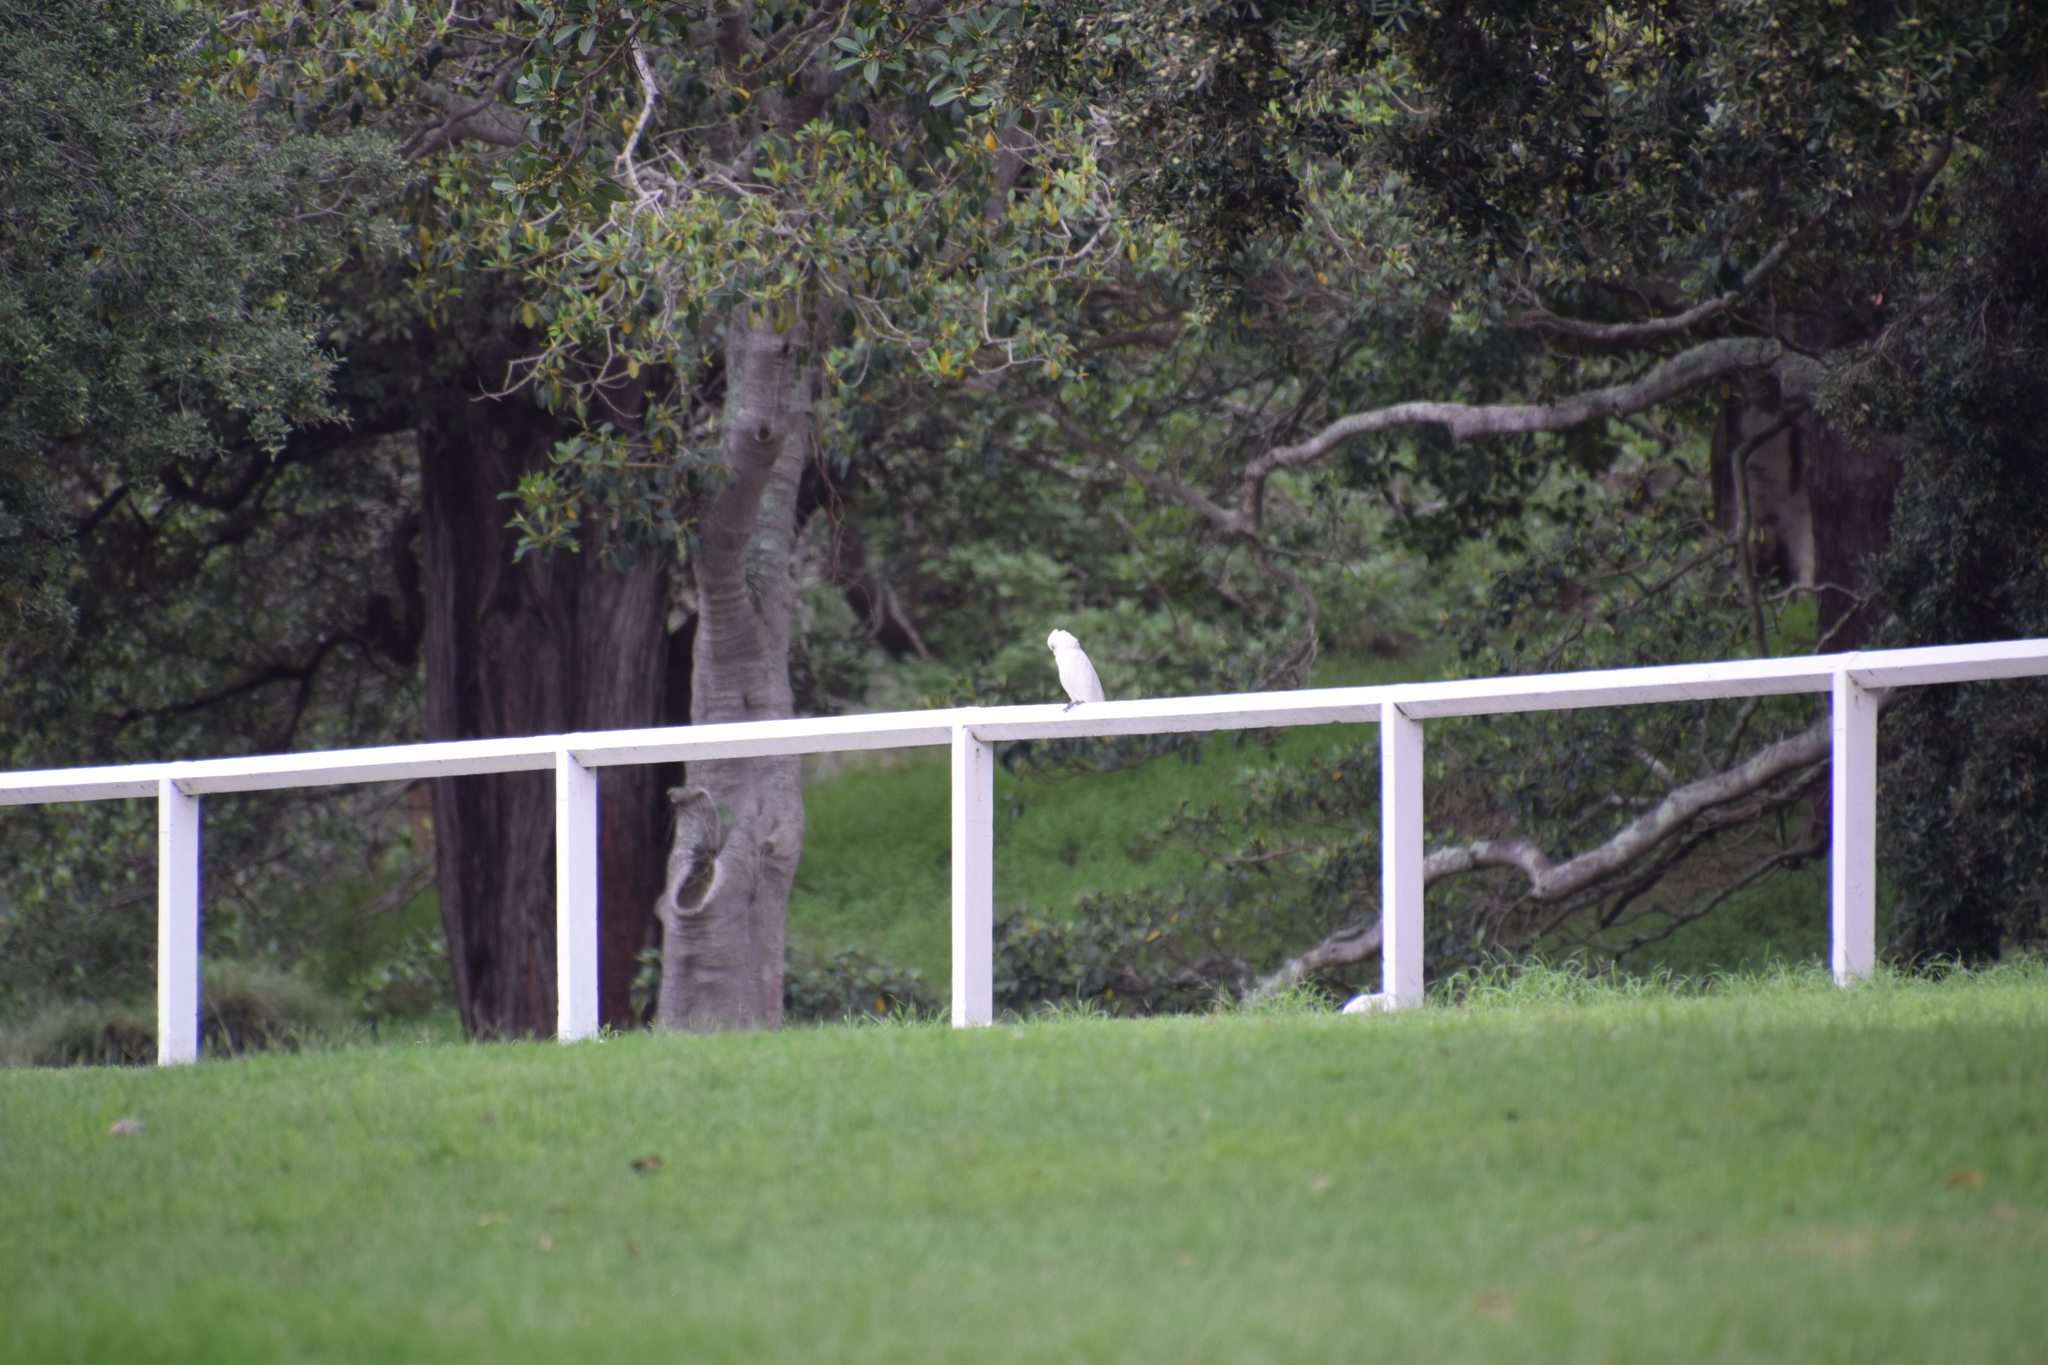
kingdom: Animalia
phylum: Chordata
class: Aves
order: Psittaciformes
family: Psittacidae
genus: Cacatua
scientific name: Cacatua sanguinea
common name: Little corella
